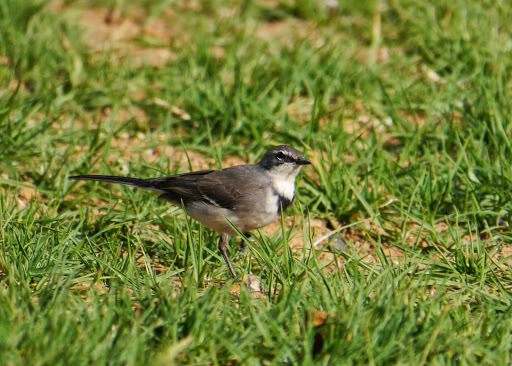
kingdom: Animalia
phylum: Chordata
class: Aves
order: Passeriformes
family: Motacillidae
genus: Motacilla
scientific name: Motacilla capensis
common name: Cape wagtail
